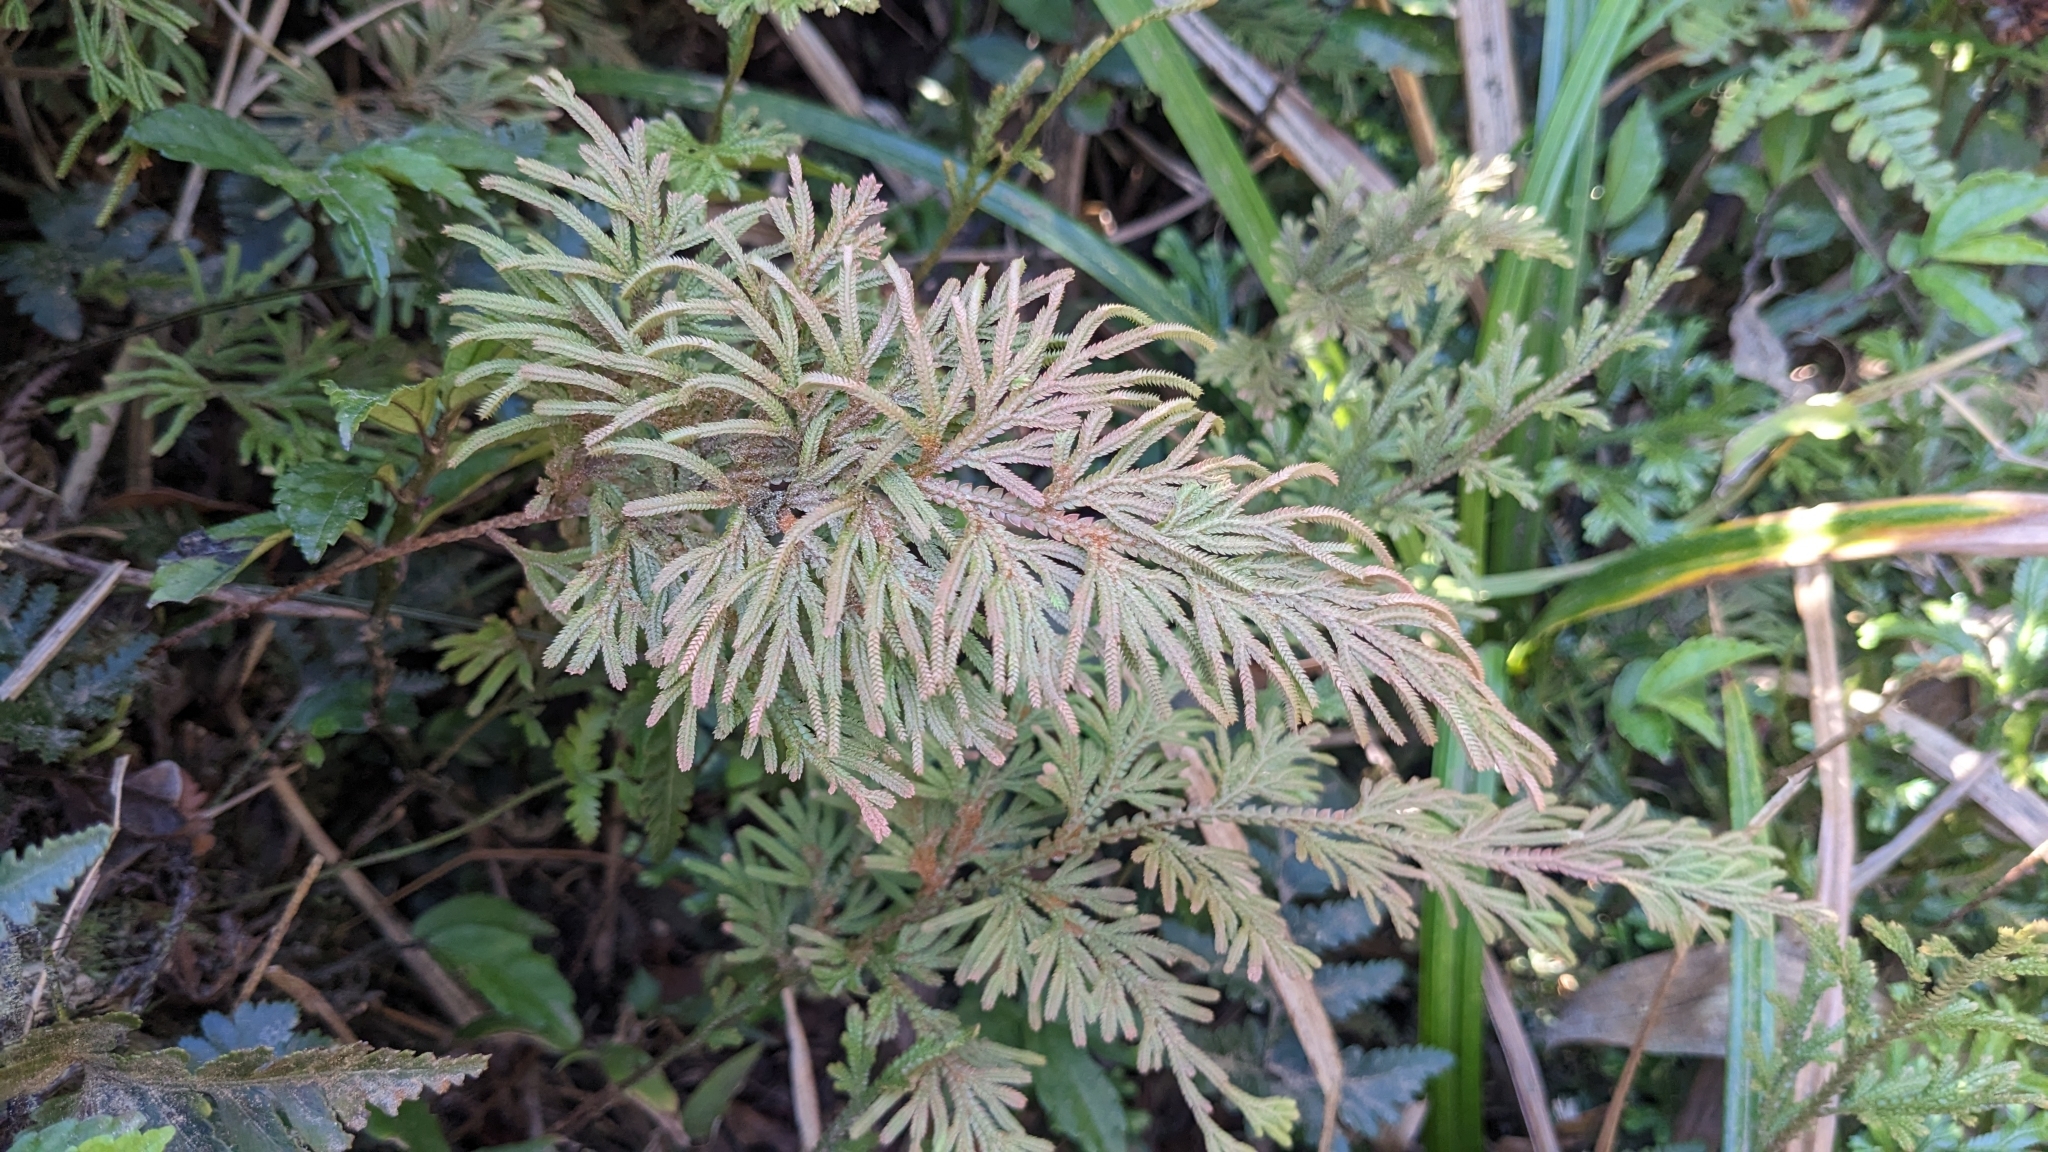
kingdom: Plantae
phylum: Tracheophyta
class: Lycopodiopsida
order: Selaginellales
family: Selaginellaceae
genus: Selaginella
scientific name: Selaginella stauntoniana
